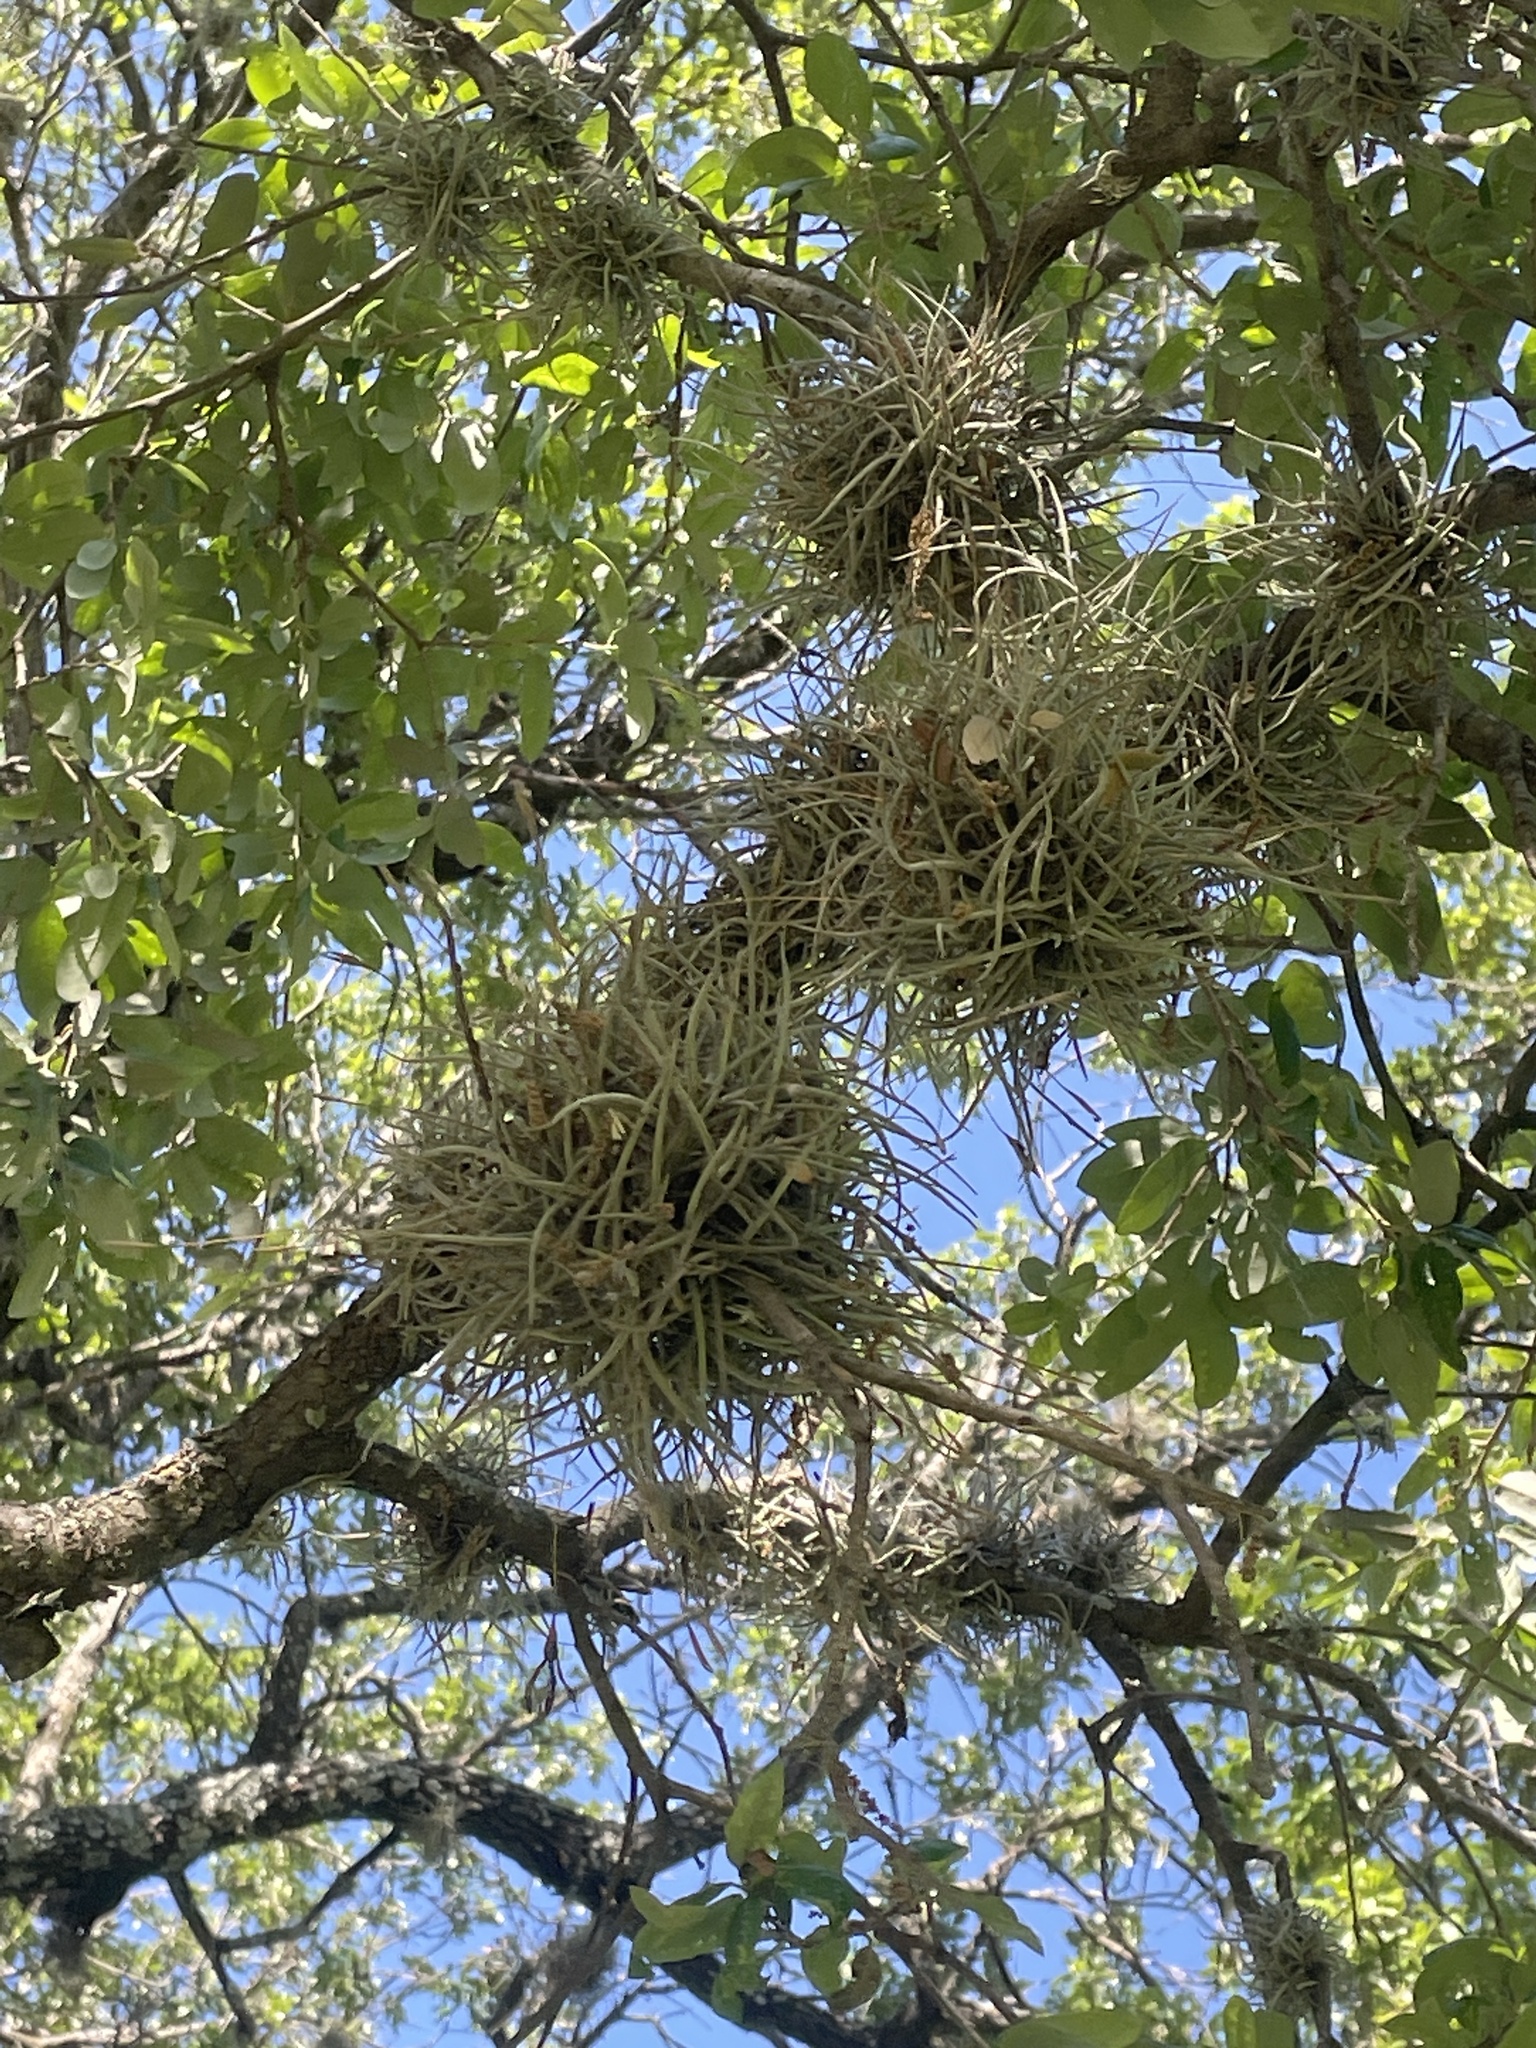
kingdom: Plantae
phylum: Tracheophyta
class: Liliopsida
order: Poales
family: Bromeliaceae
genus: Tillandsia
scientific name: Tillandsia recurvata
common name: Small ballmoss
